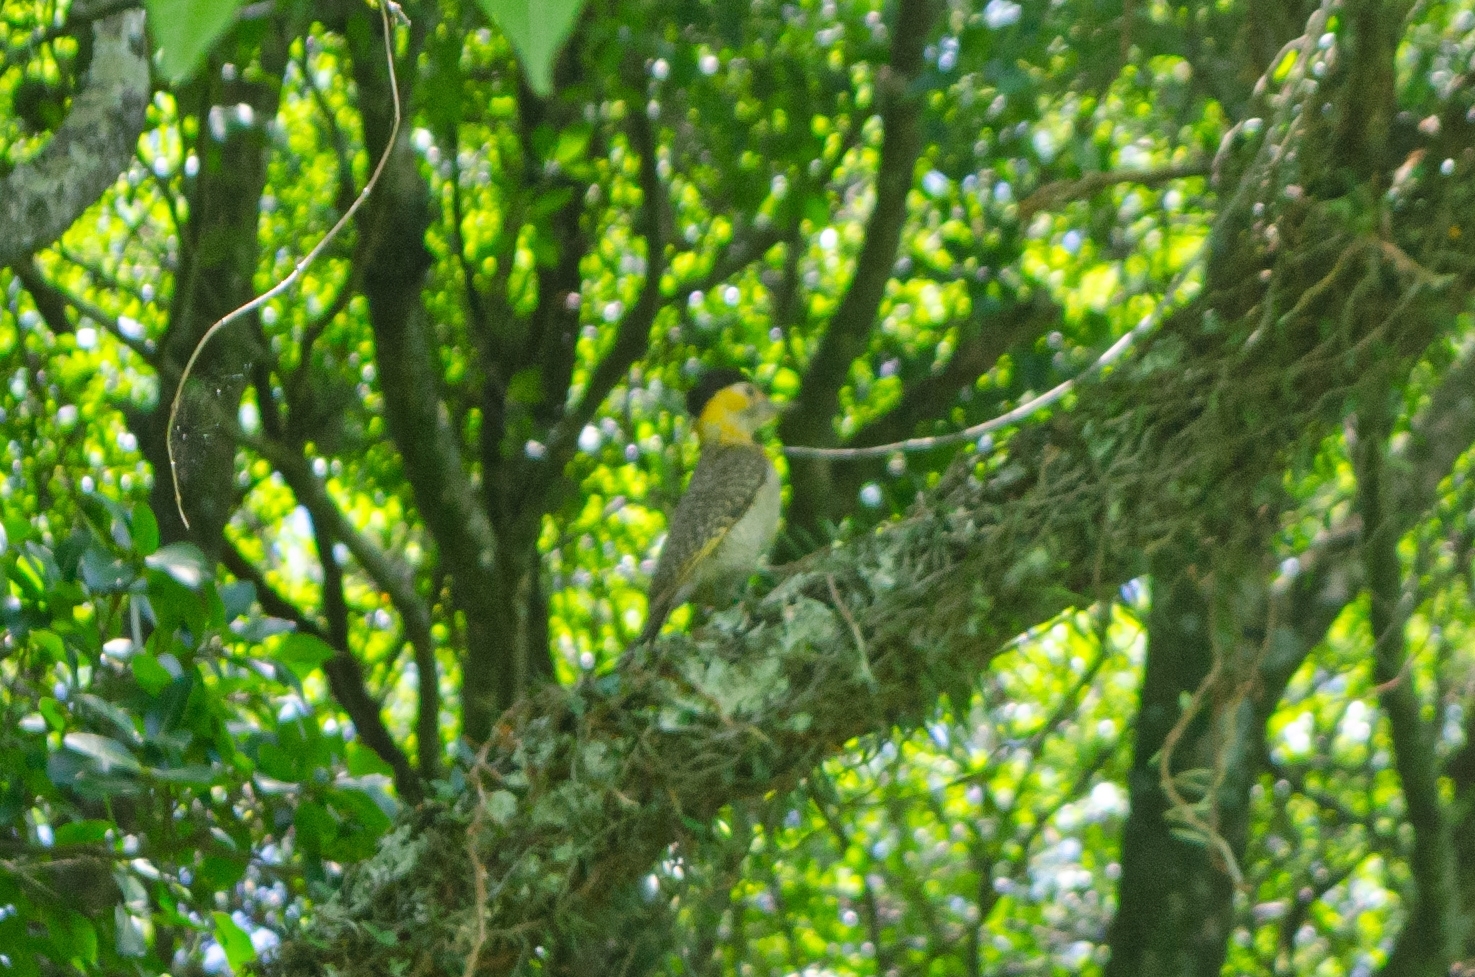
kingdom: Animalia
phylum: Chordata
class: Aves
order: Piciformes
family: Picidae
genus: Colaptes
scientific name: Colaptes campestris
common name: Campo flicker
